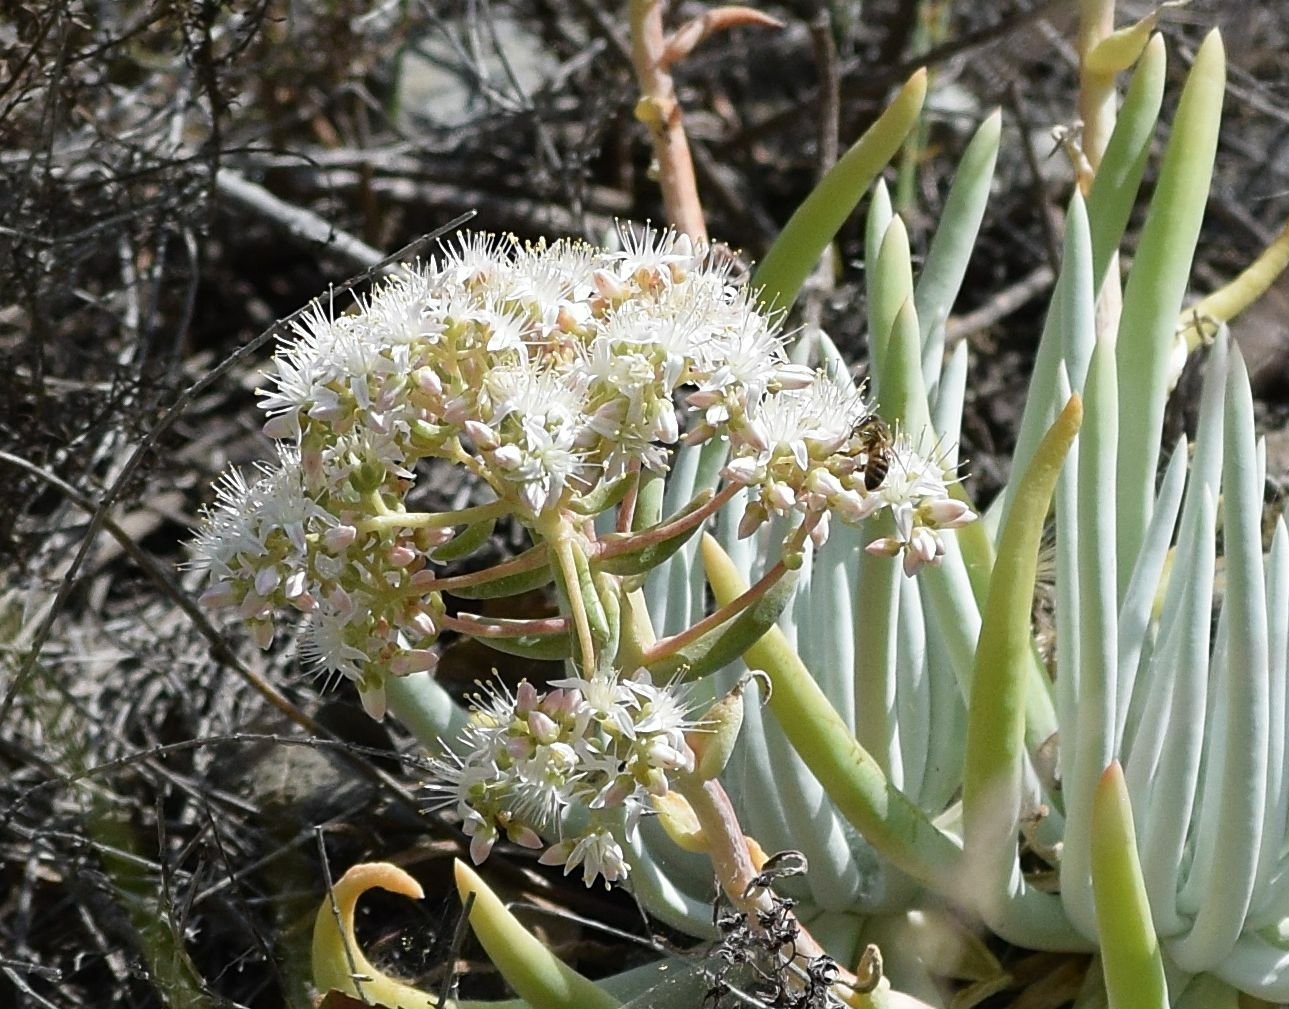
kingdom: Animalia
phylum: Arthropoda
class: Insecta
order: Hymenoptera
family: Apidae
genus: Apis
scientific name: Apis mellifera
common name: Honey bee
